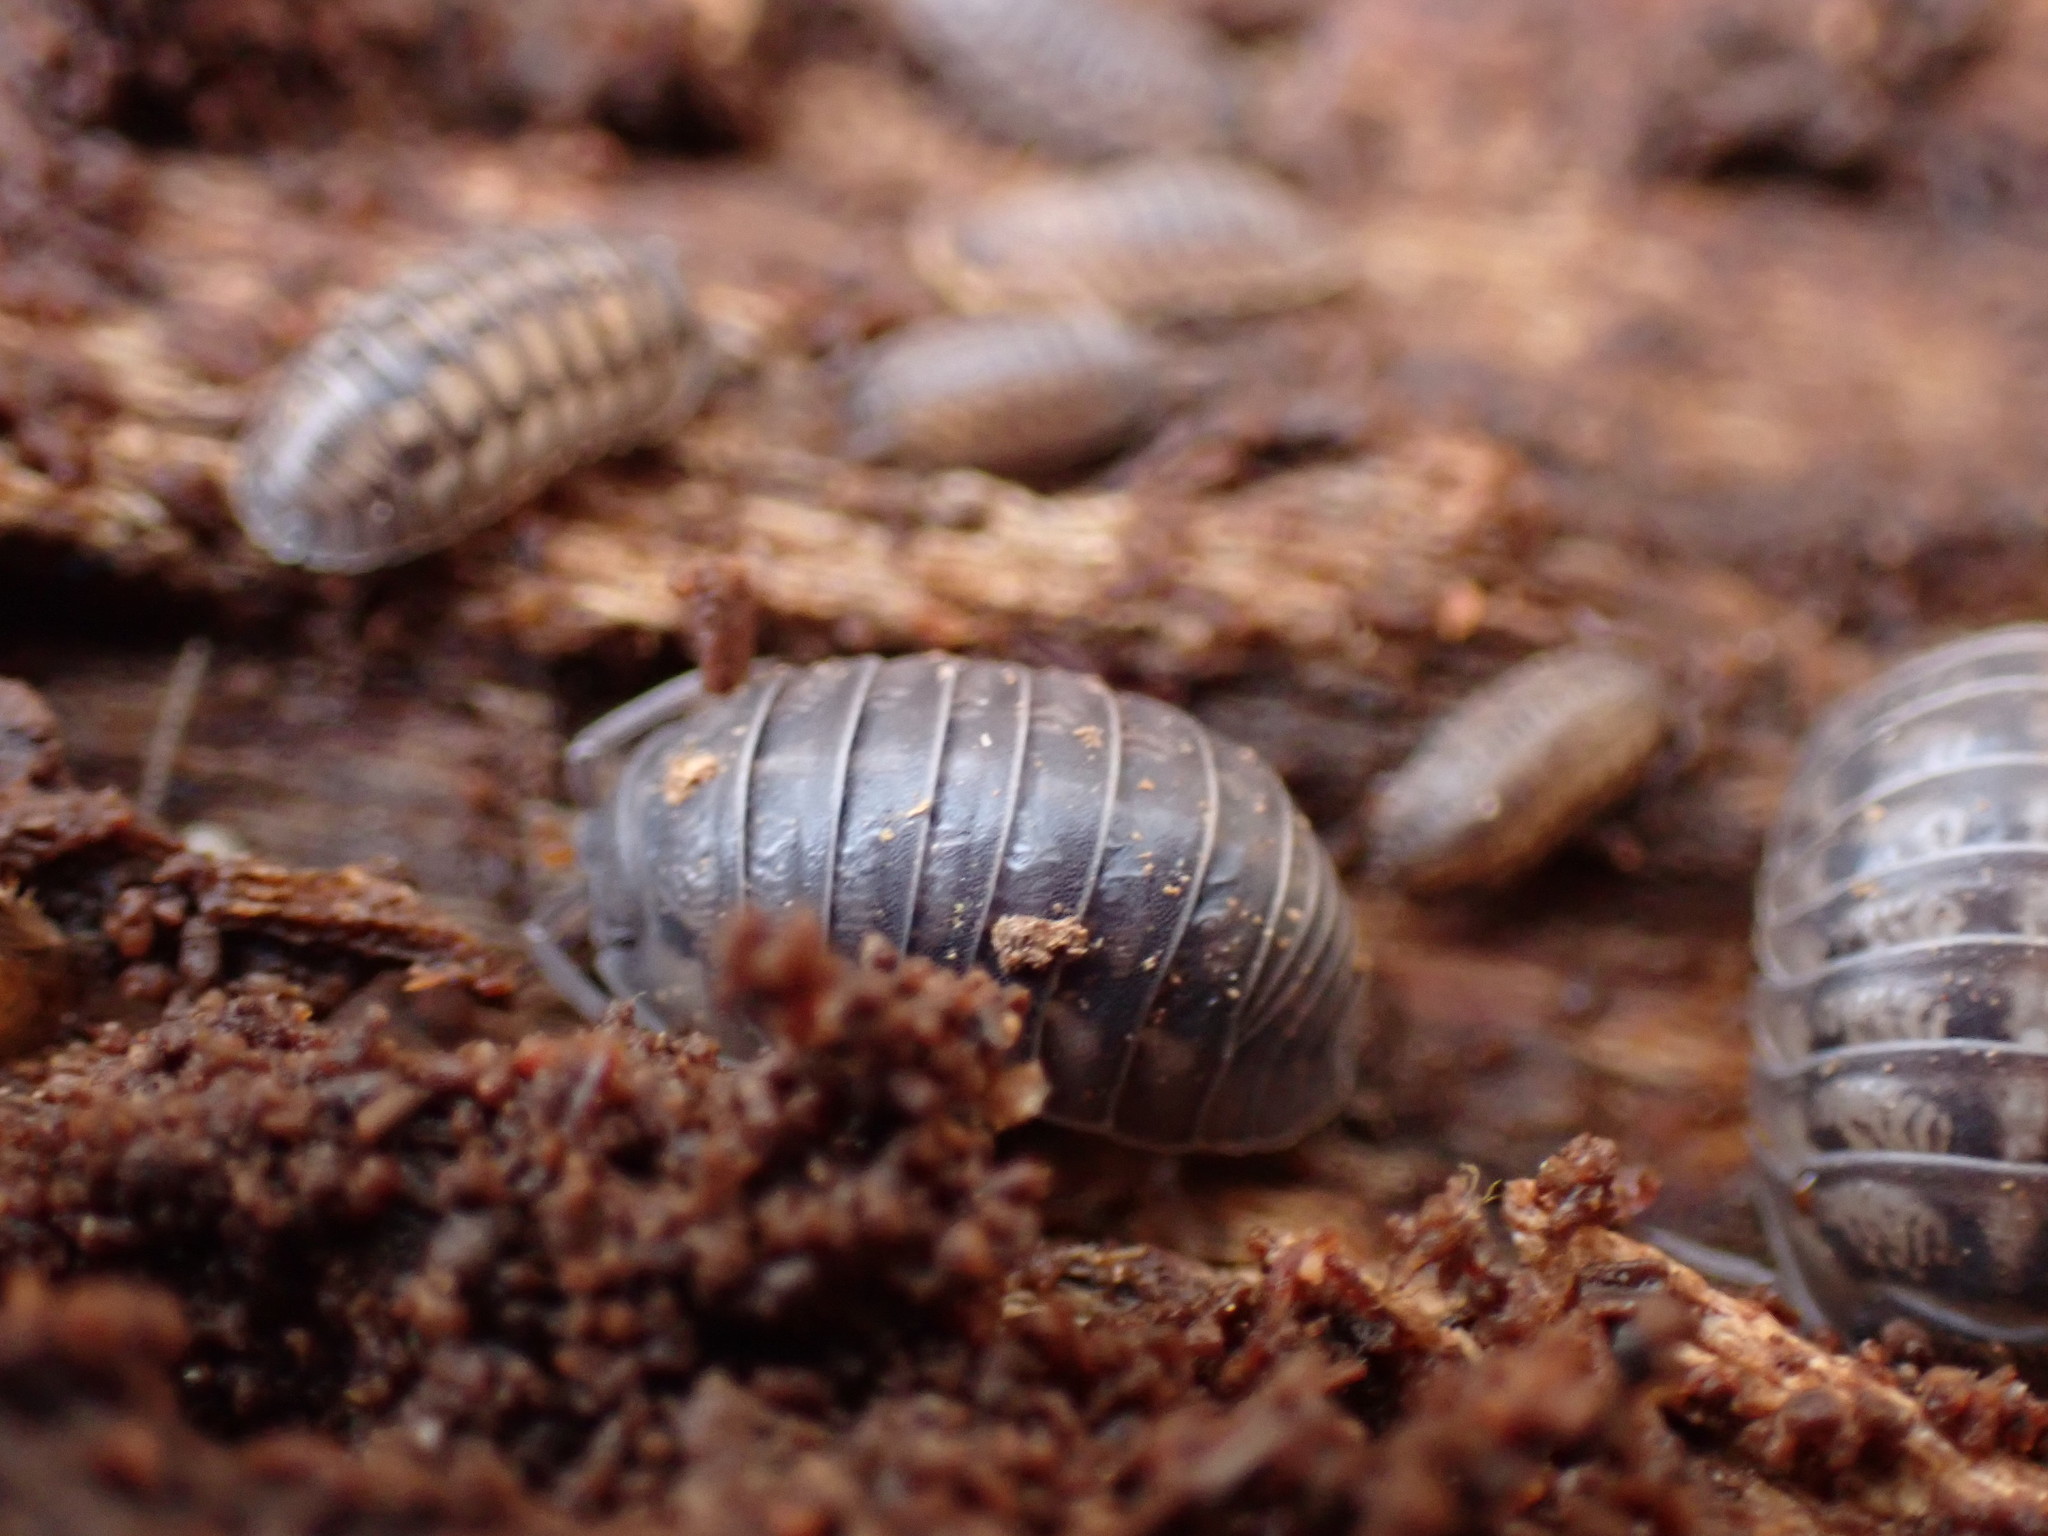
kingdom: Animalia
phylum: Arthropoda
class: Malacostraca
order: Isopoda
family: Armadillidiidae
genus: Armadillidium
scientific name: Armadillidium nasatum
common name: Isopod
